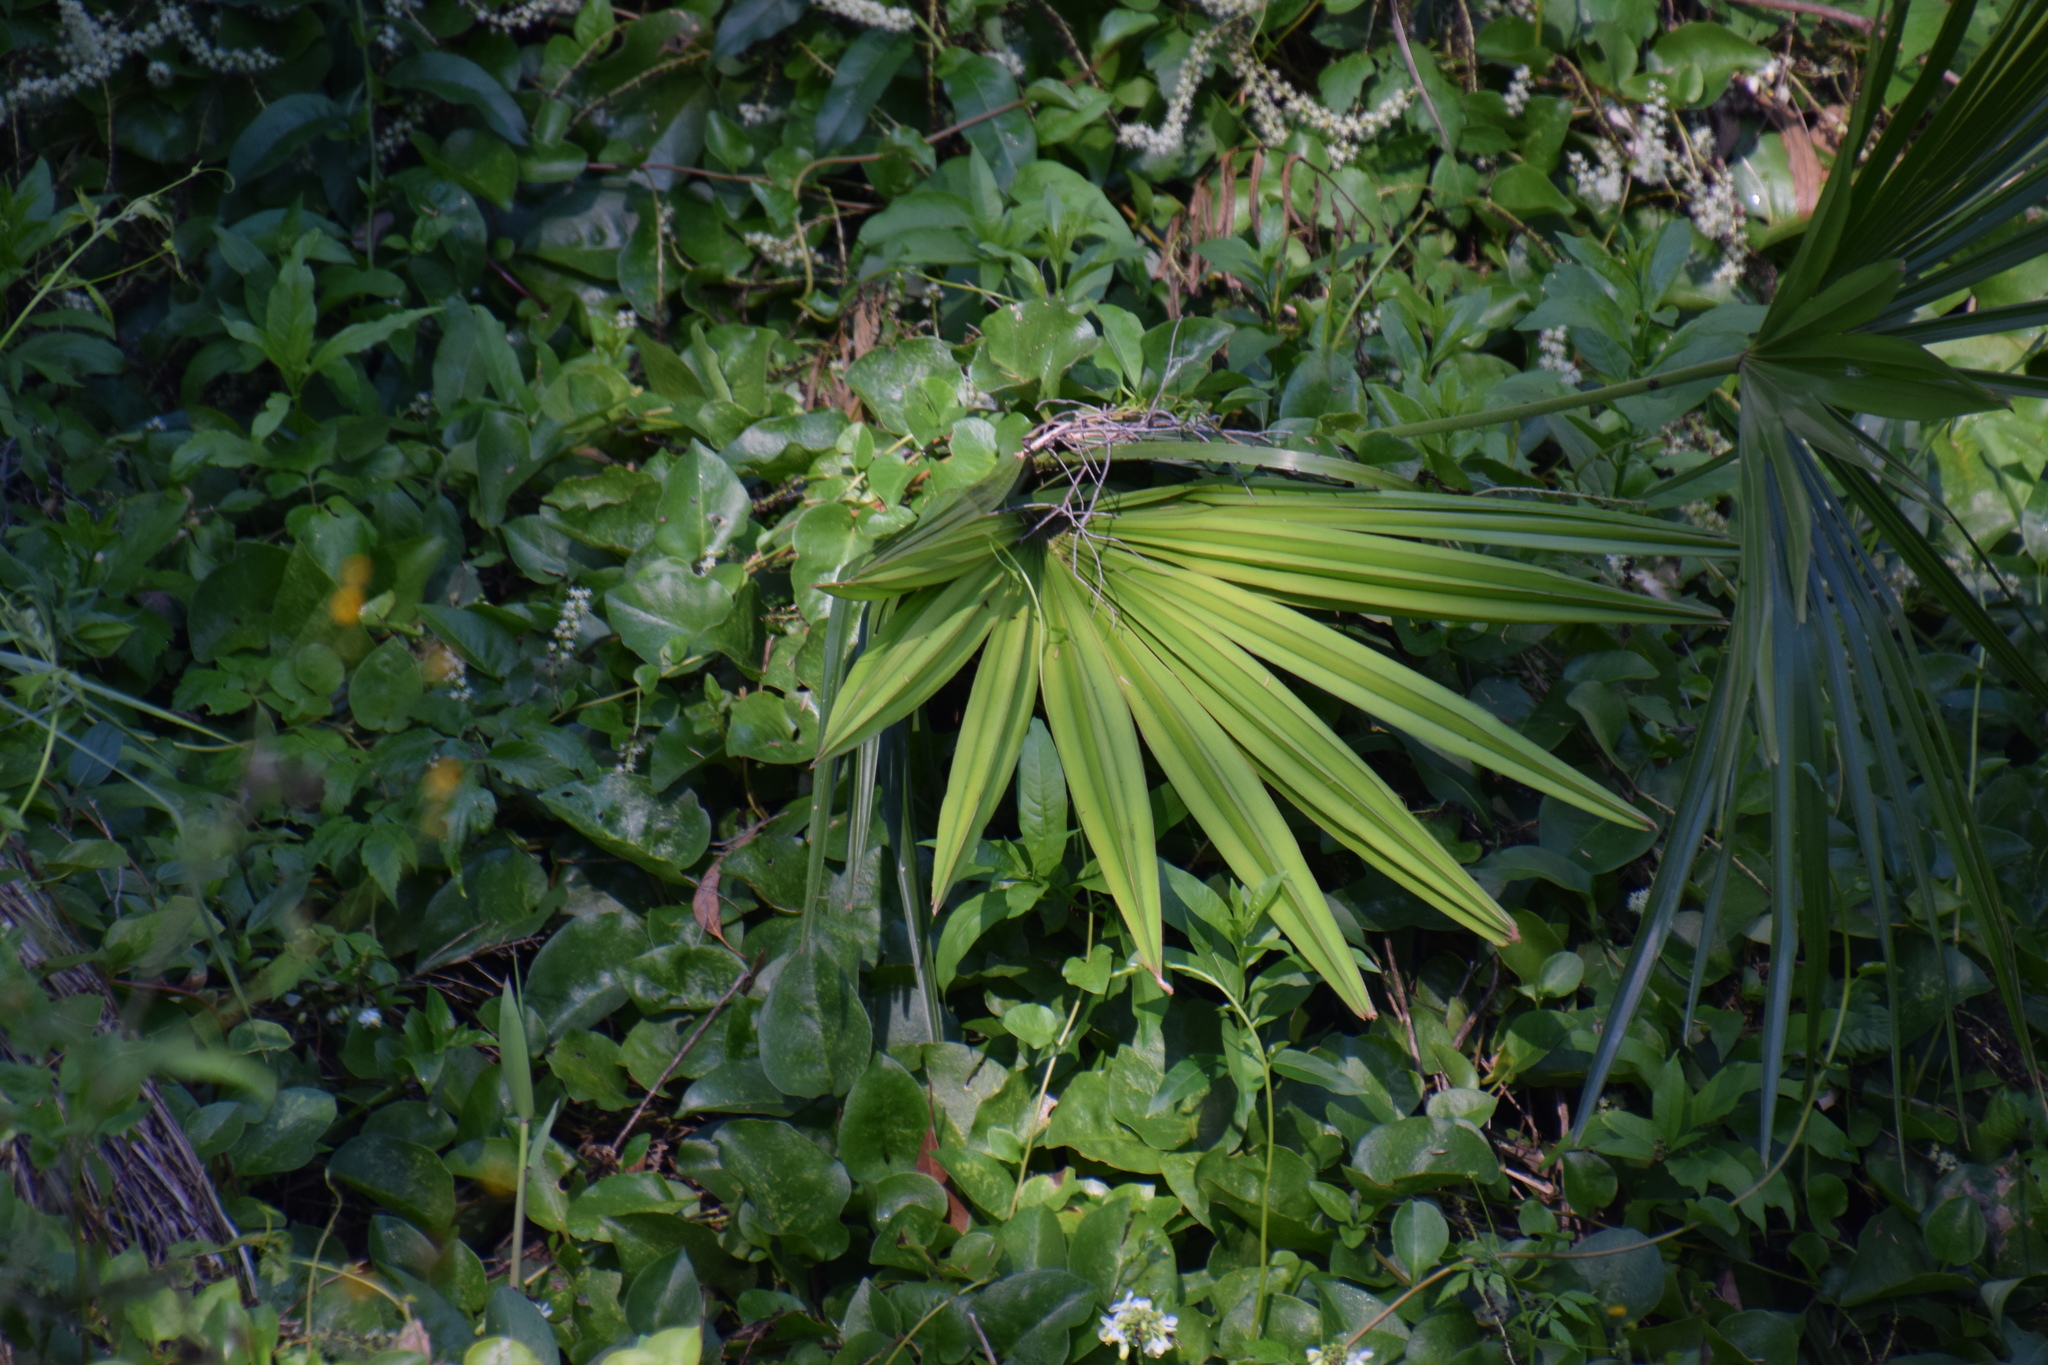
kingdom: Plantae
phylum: Tracheophyta
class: Liliopsida
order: Arecales
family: Arecaceae
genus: Livistona
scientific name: Livistona australis
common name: Cabbage fan palm
